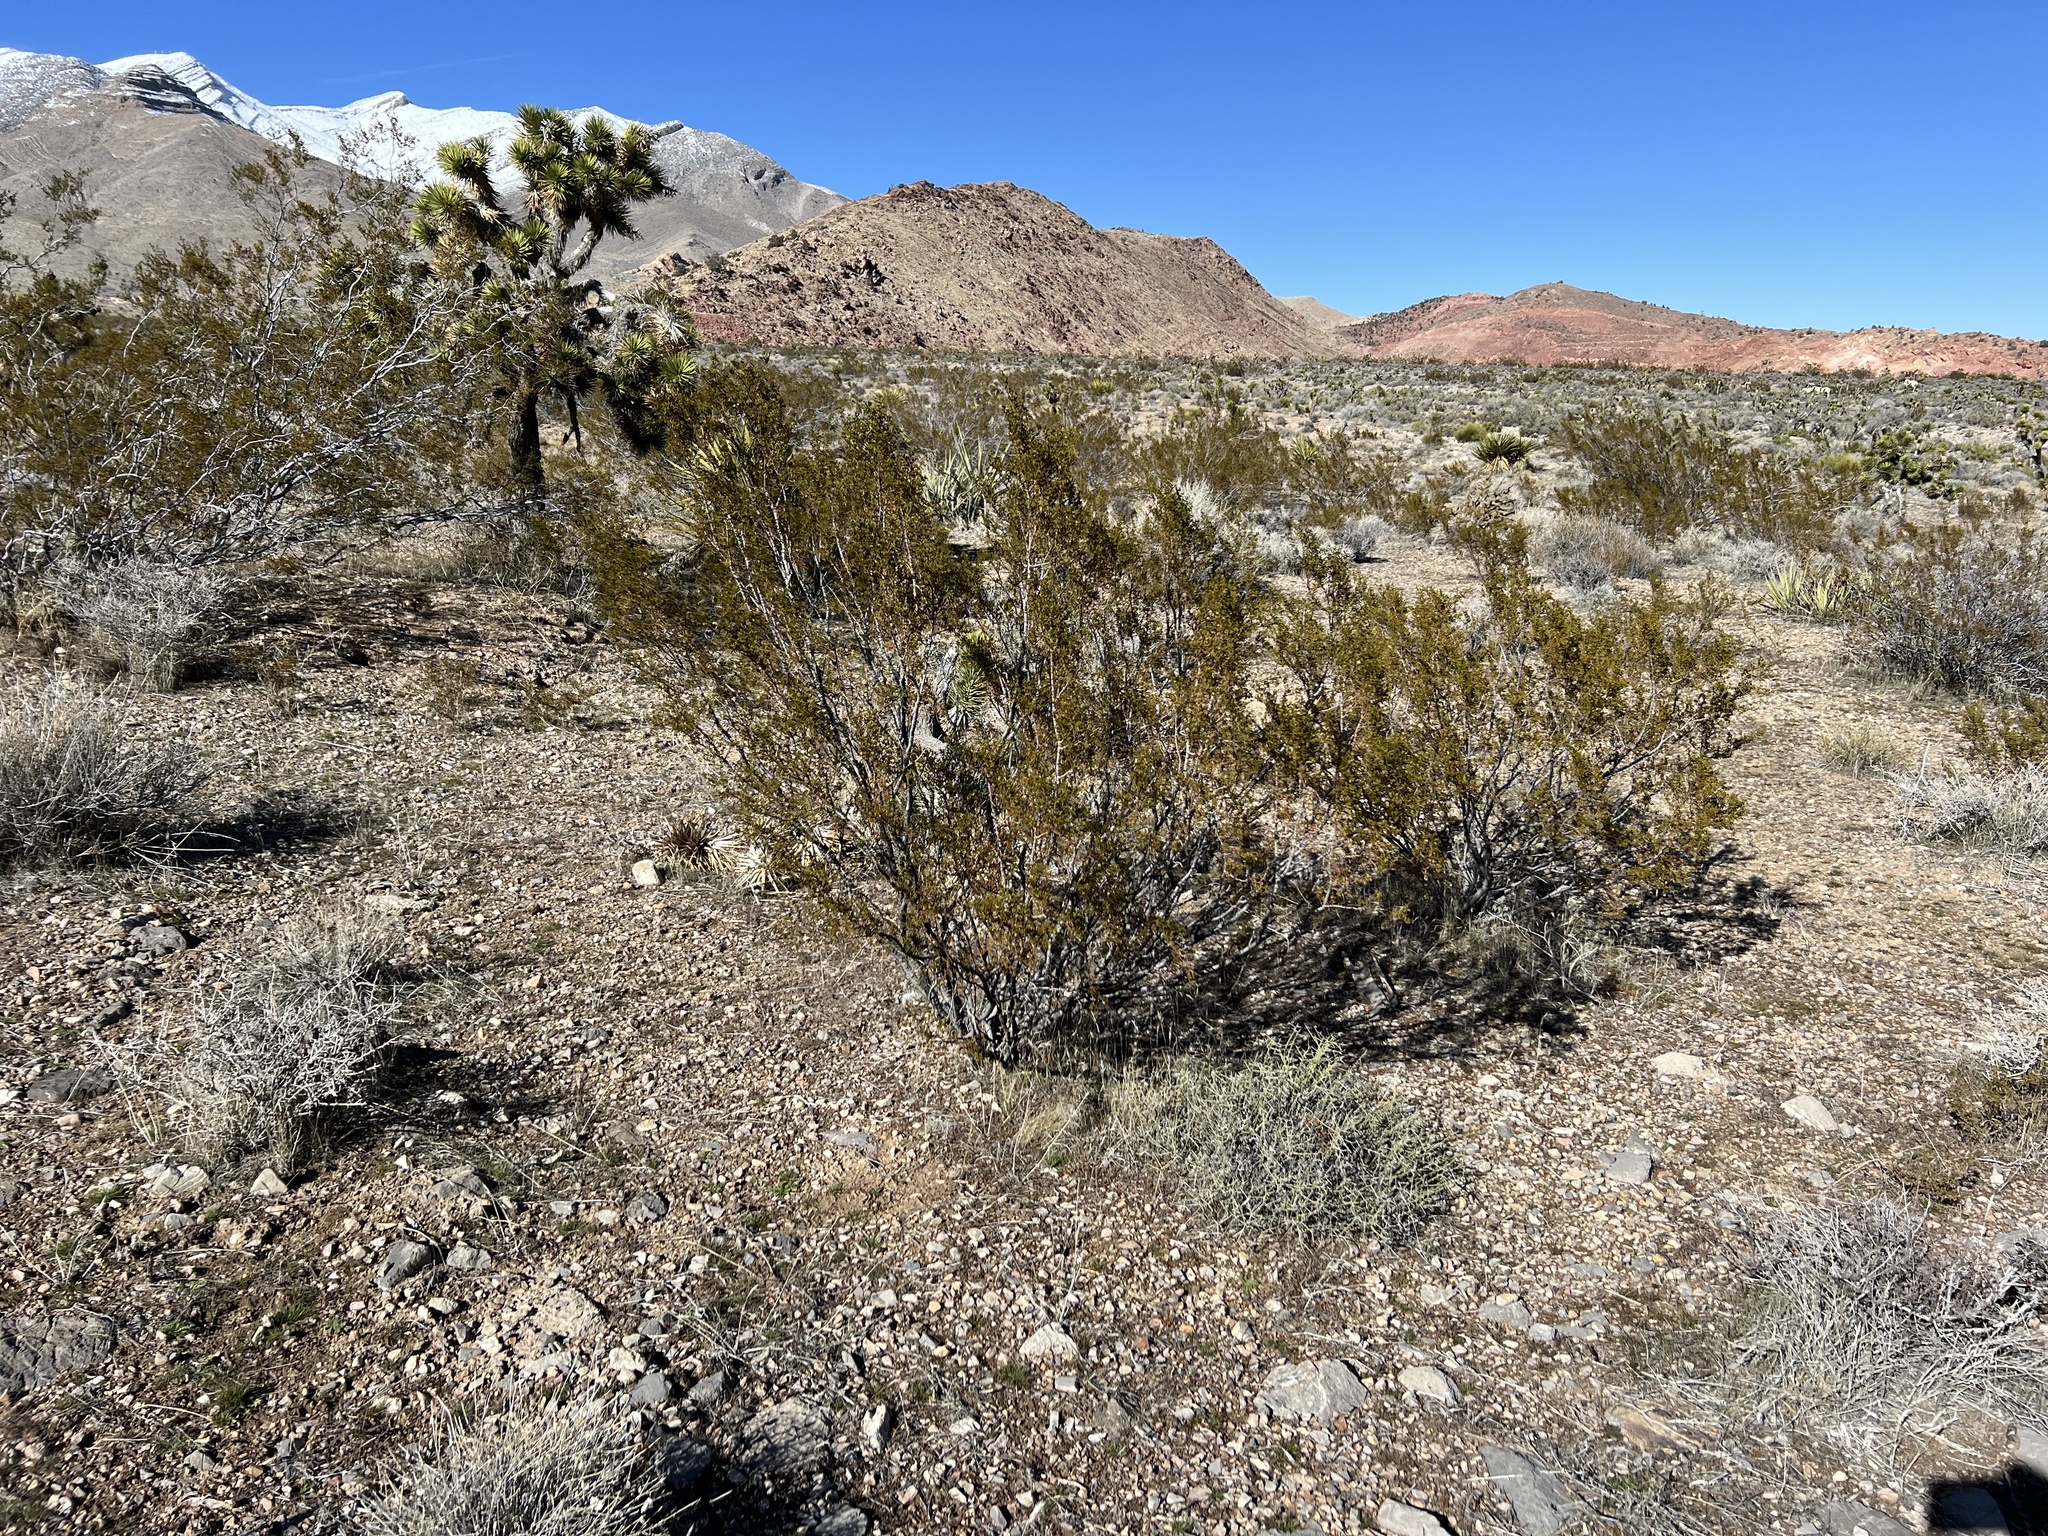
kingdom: Plantae
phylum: Tracheophyta
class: Magnoliopsida
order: Zygophyllales
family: Zygophyllaceae
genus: Larrea
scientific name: Larrea tridentata
